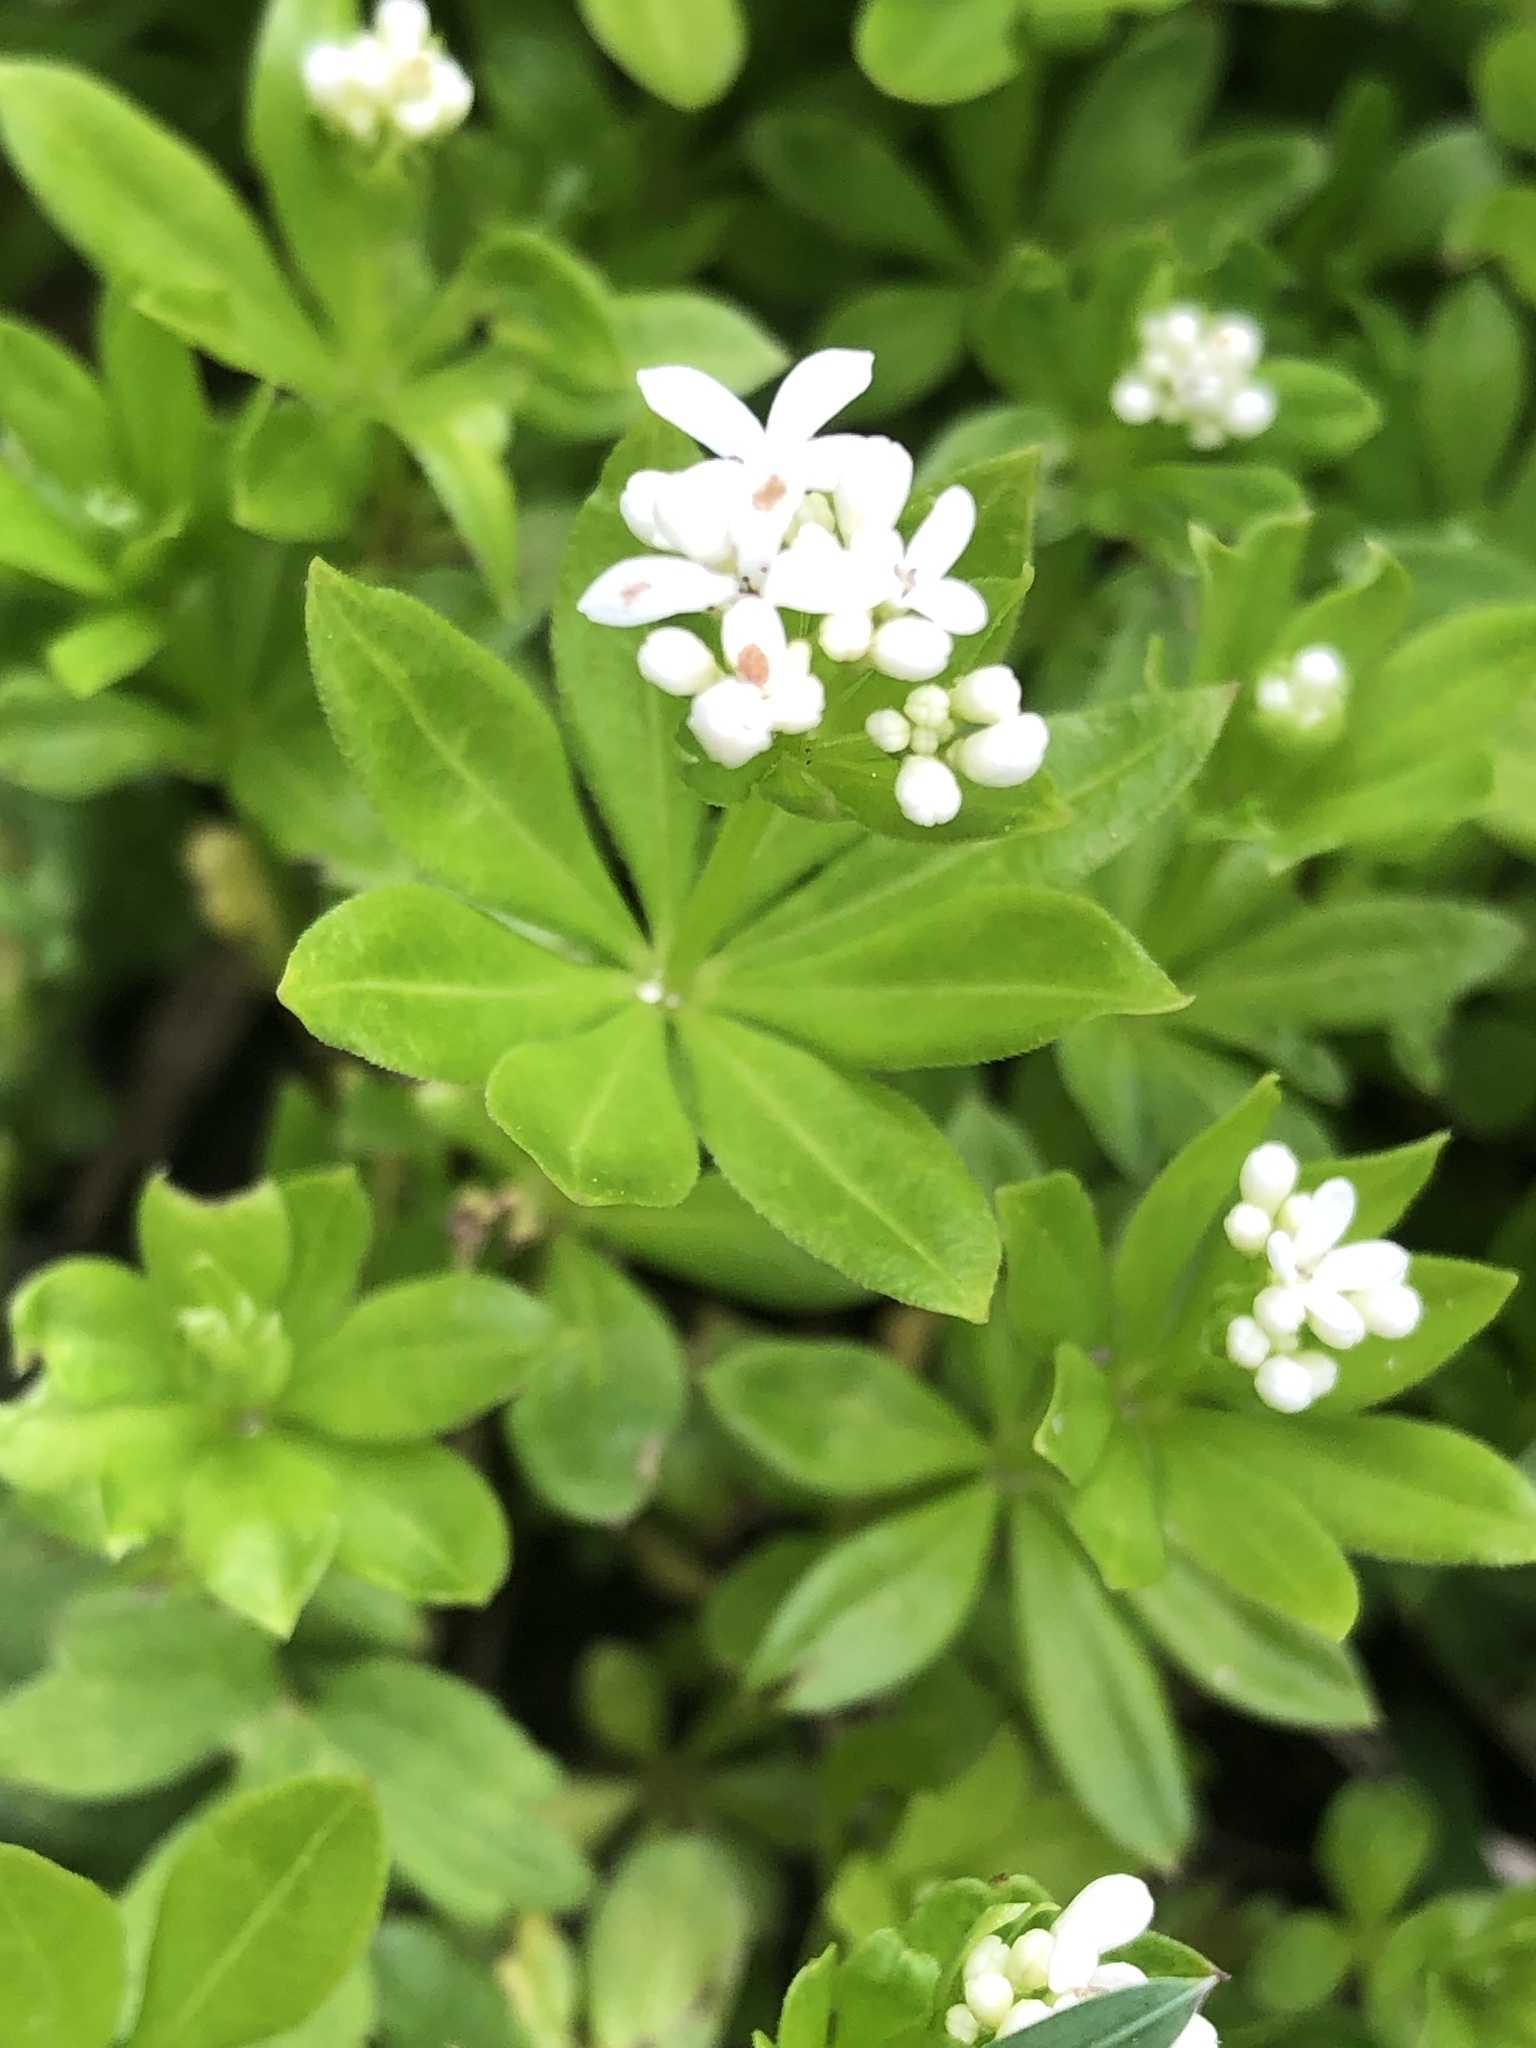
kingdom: Plantae
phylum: Tracheophyta
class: Magnoliopsida
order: Gentianales
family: Rubiaceae
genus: Galium
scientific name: Galium odoratum
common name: Sweet woodruff
